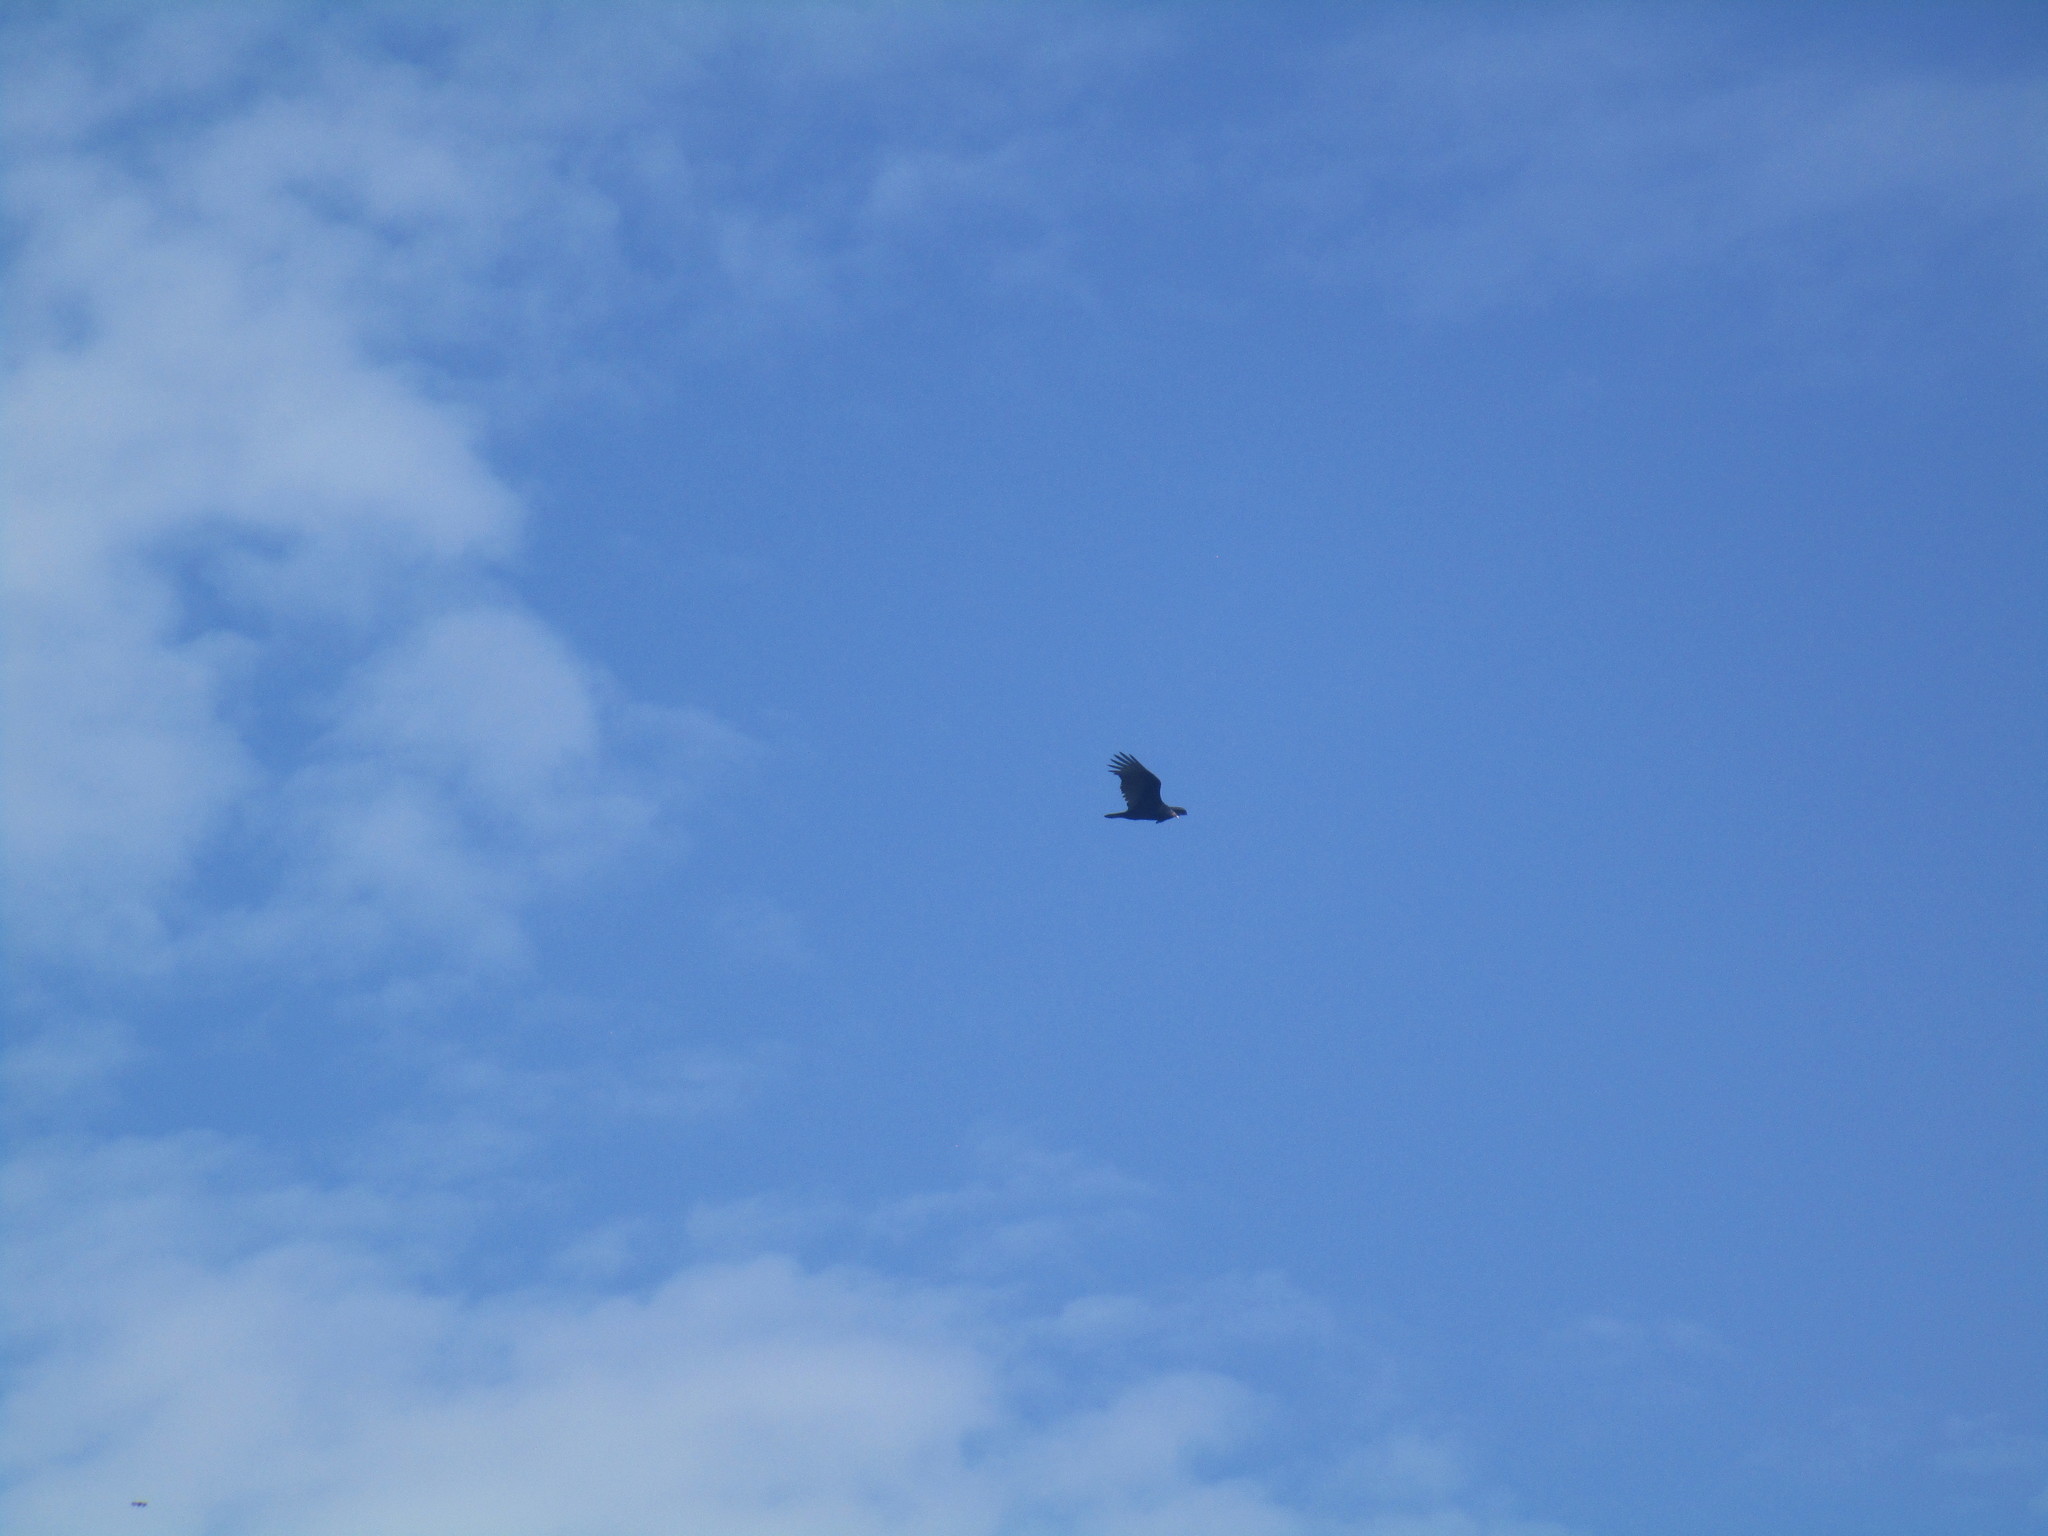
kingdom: Animalia
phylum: Chordata
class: Aves
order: Accipitriformes
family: Cathartidae
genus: Cathartes
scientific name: Cathartes aura
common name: Turkey vulture
